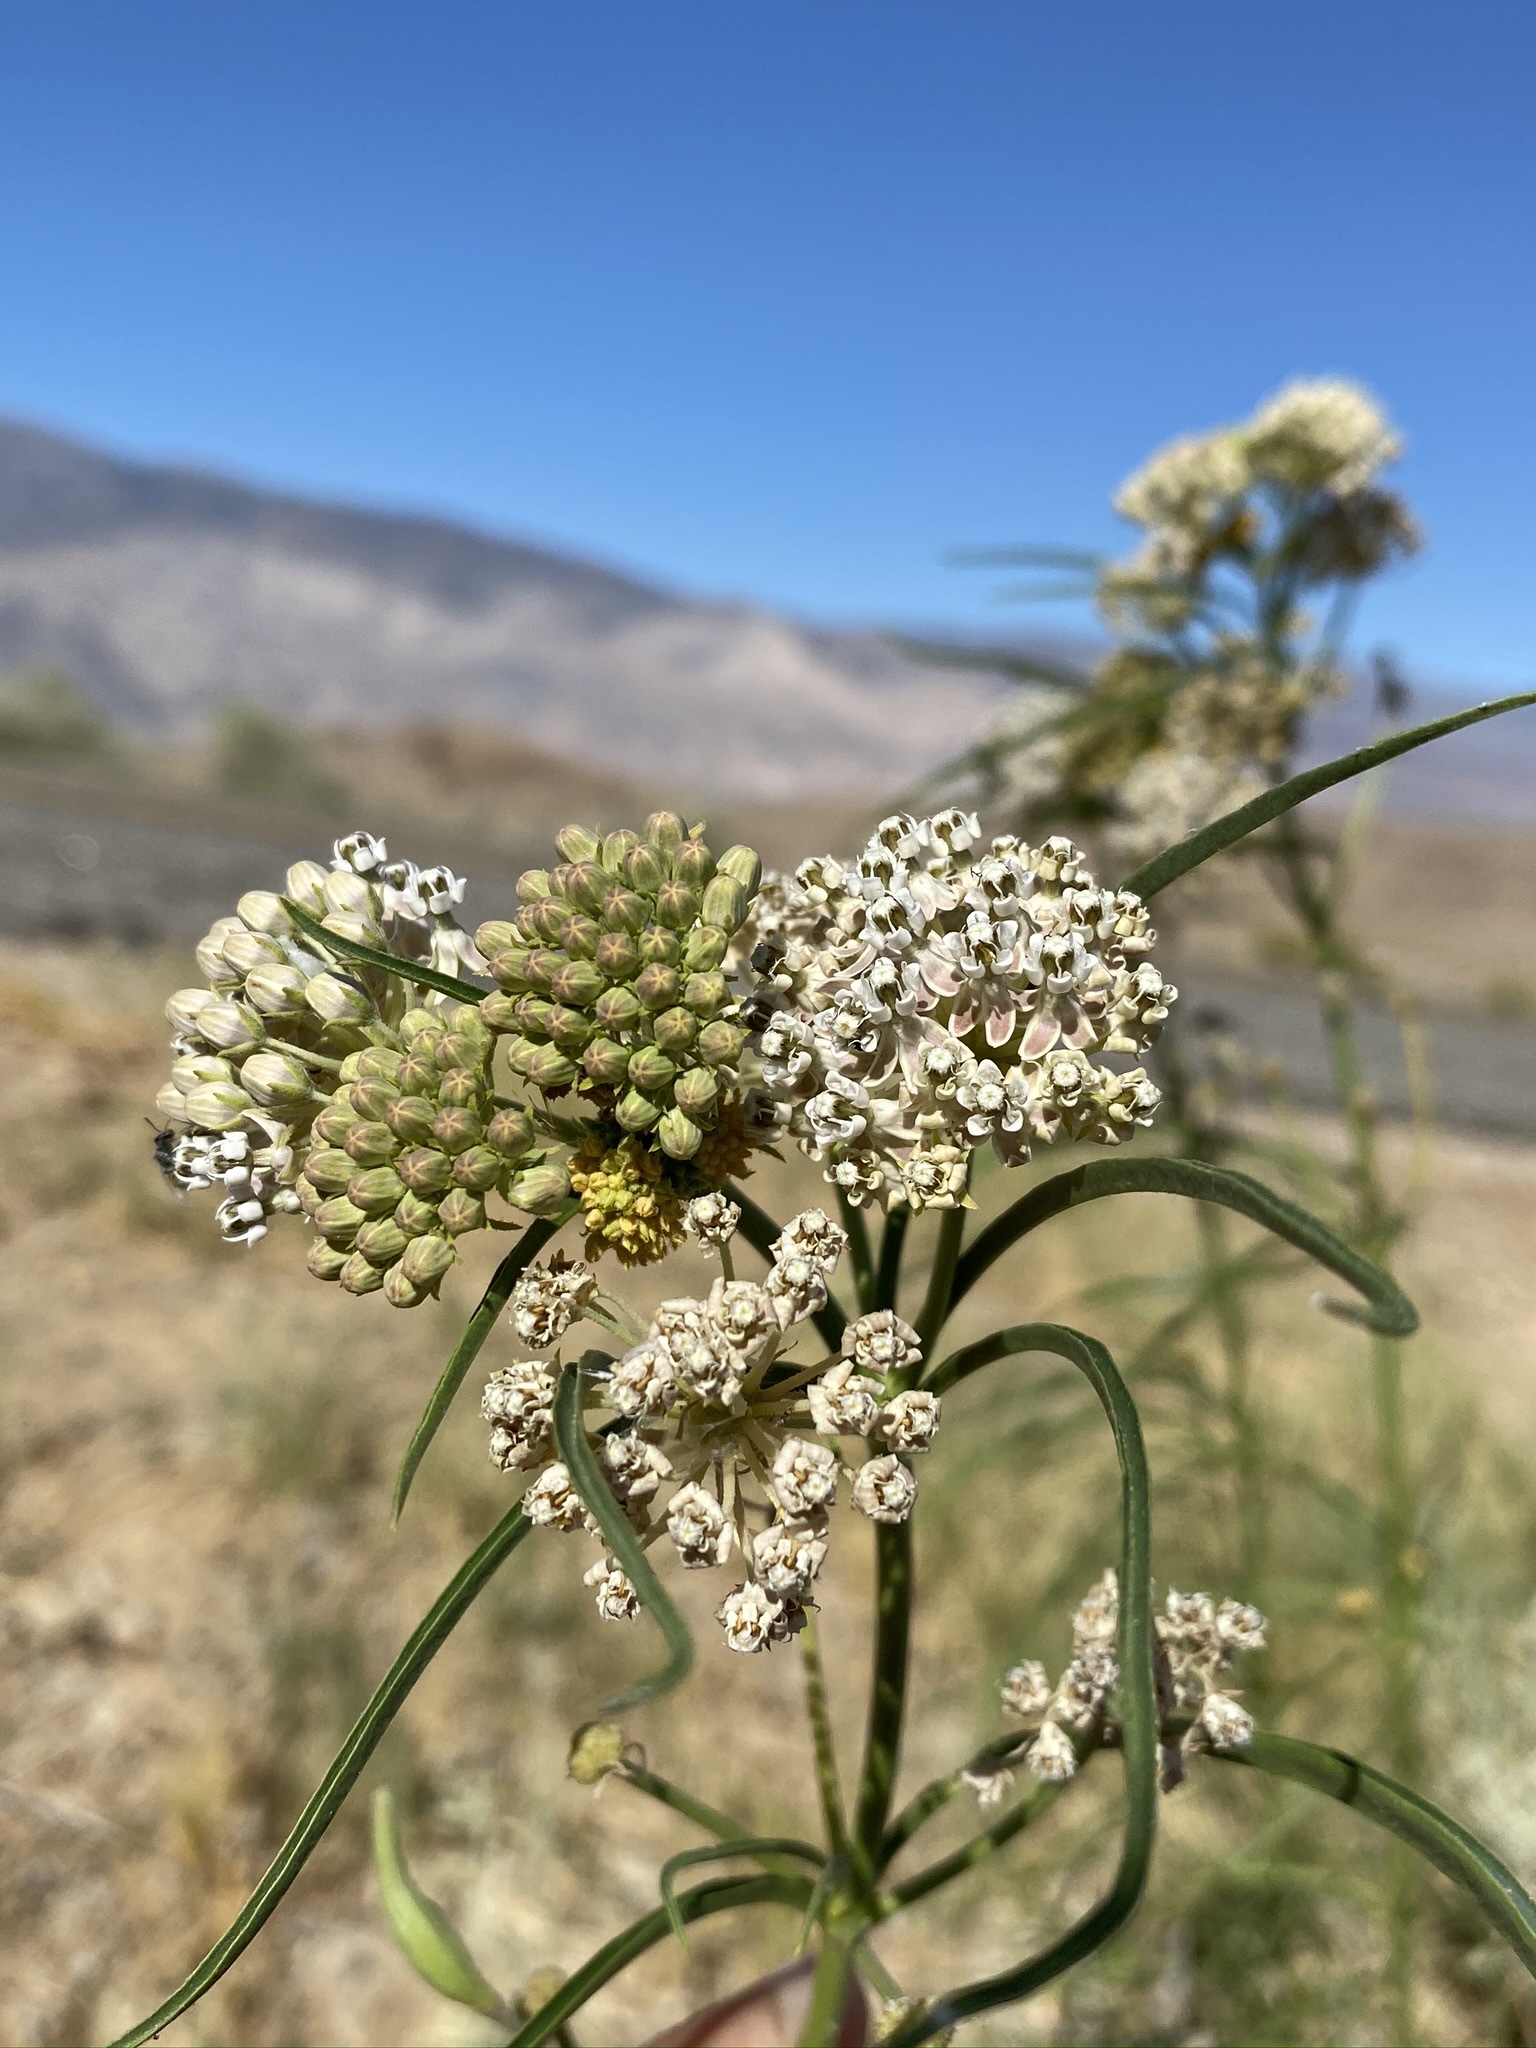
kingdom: Plantae
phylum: Tracheophyta
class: Magnoliopsida
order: Gentianales
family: Apocynaceae
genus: Asclepias
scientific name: Asclepias fascicularis
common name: Mexican milkweed
